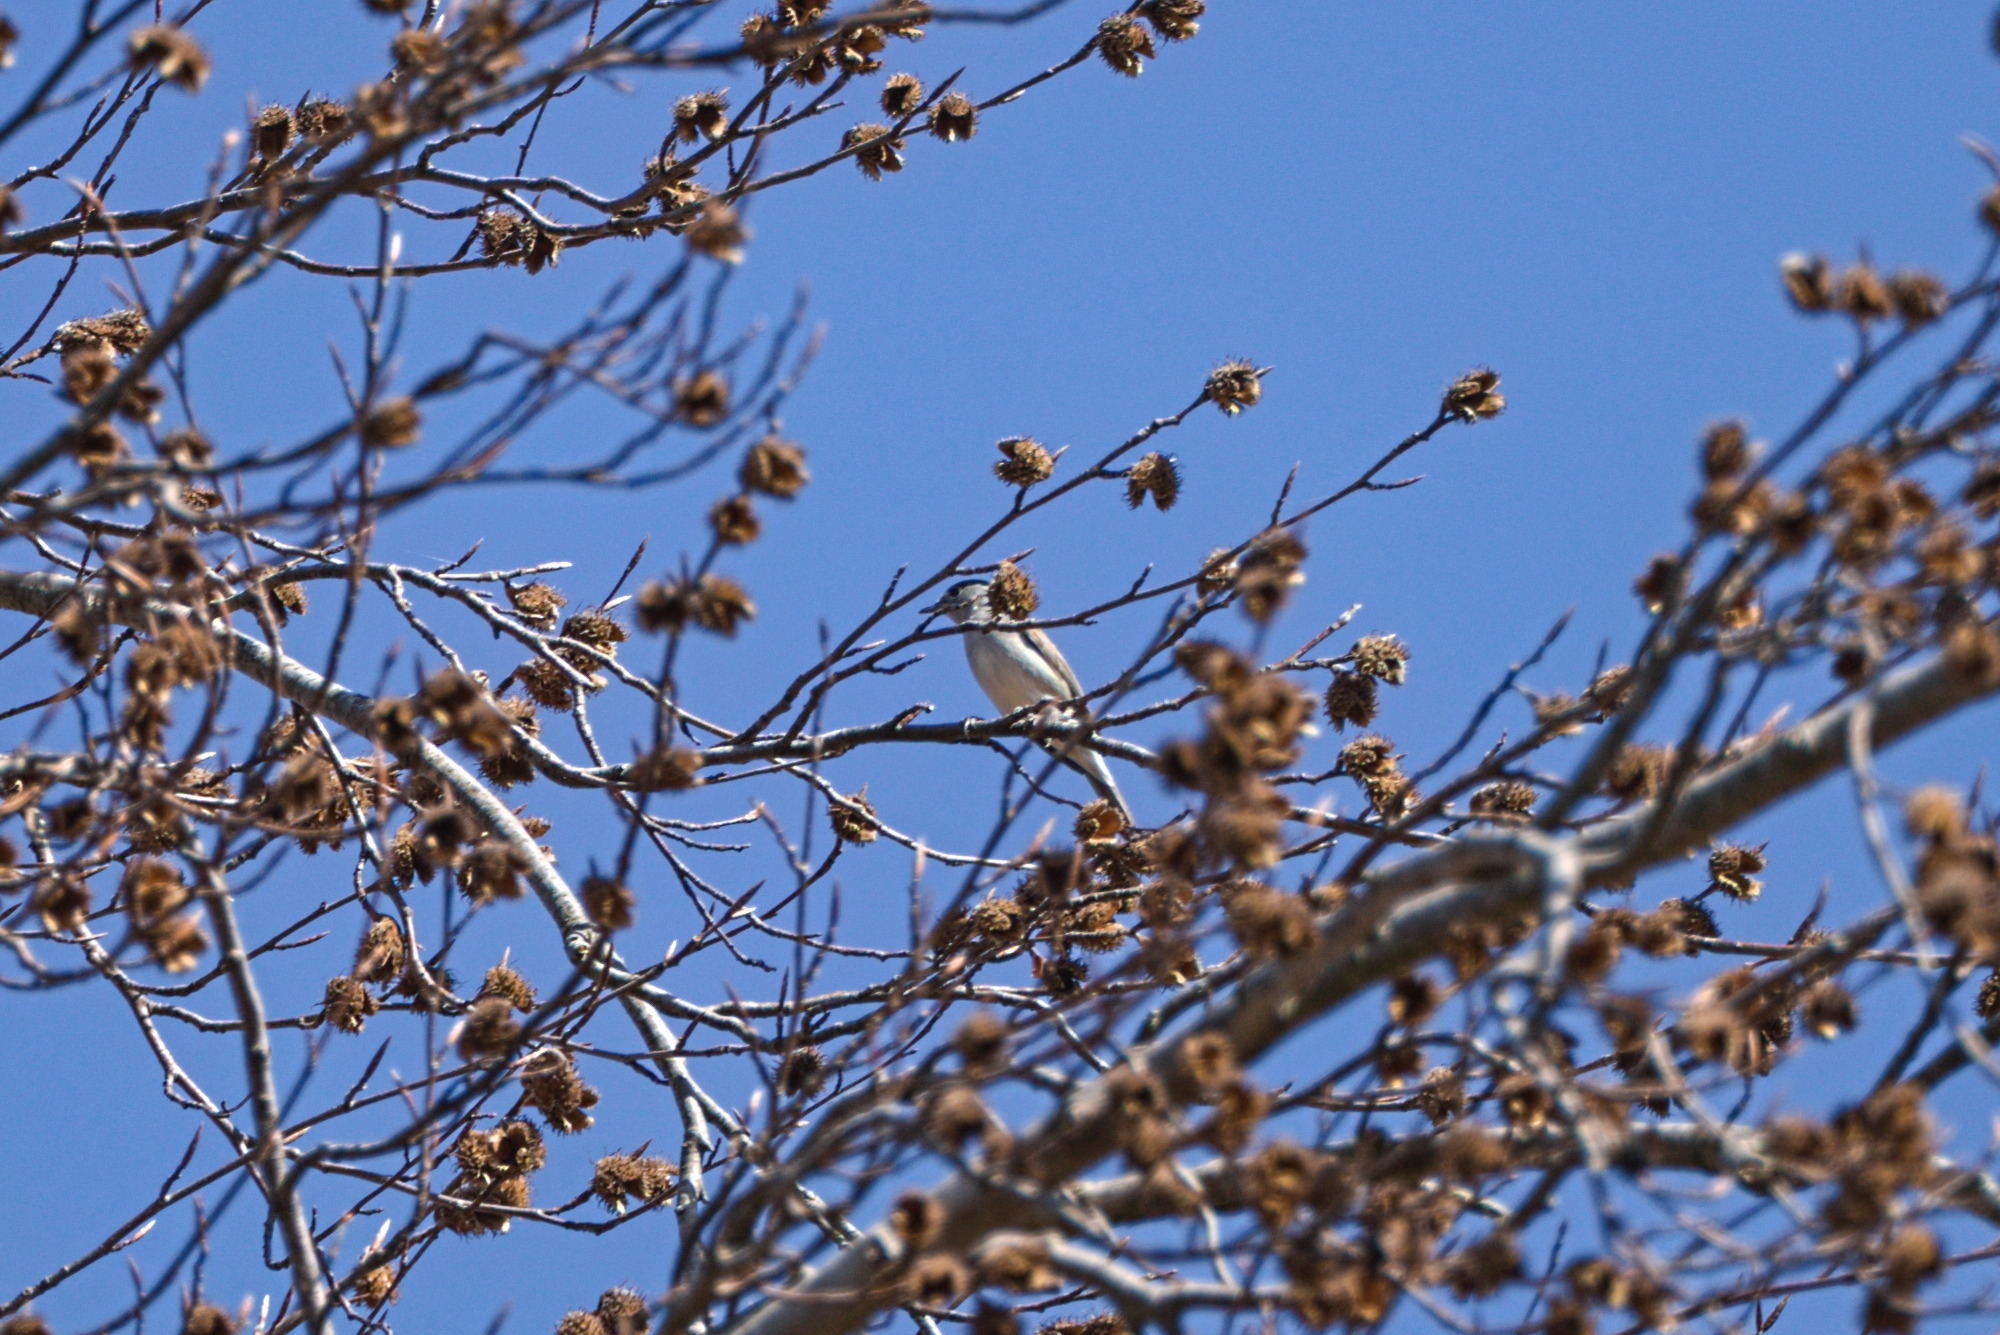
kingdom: Animalia
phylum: Chordata
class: Aves
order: Passeriformes
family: Sylviidae
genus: Sylvia
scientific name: Sylvia atricapilla
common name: Eurasian blackcap
